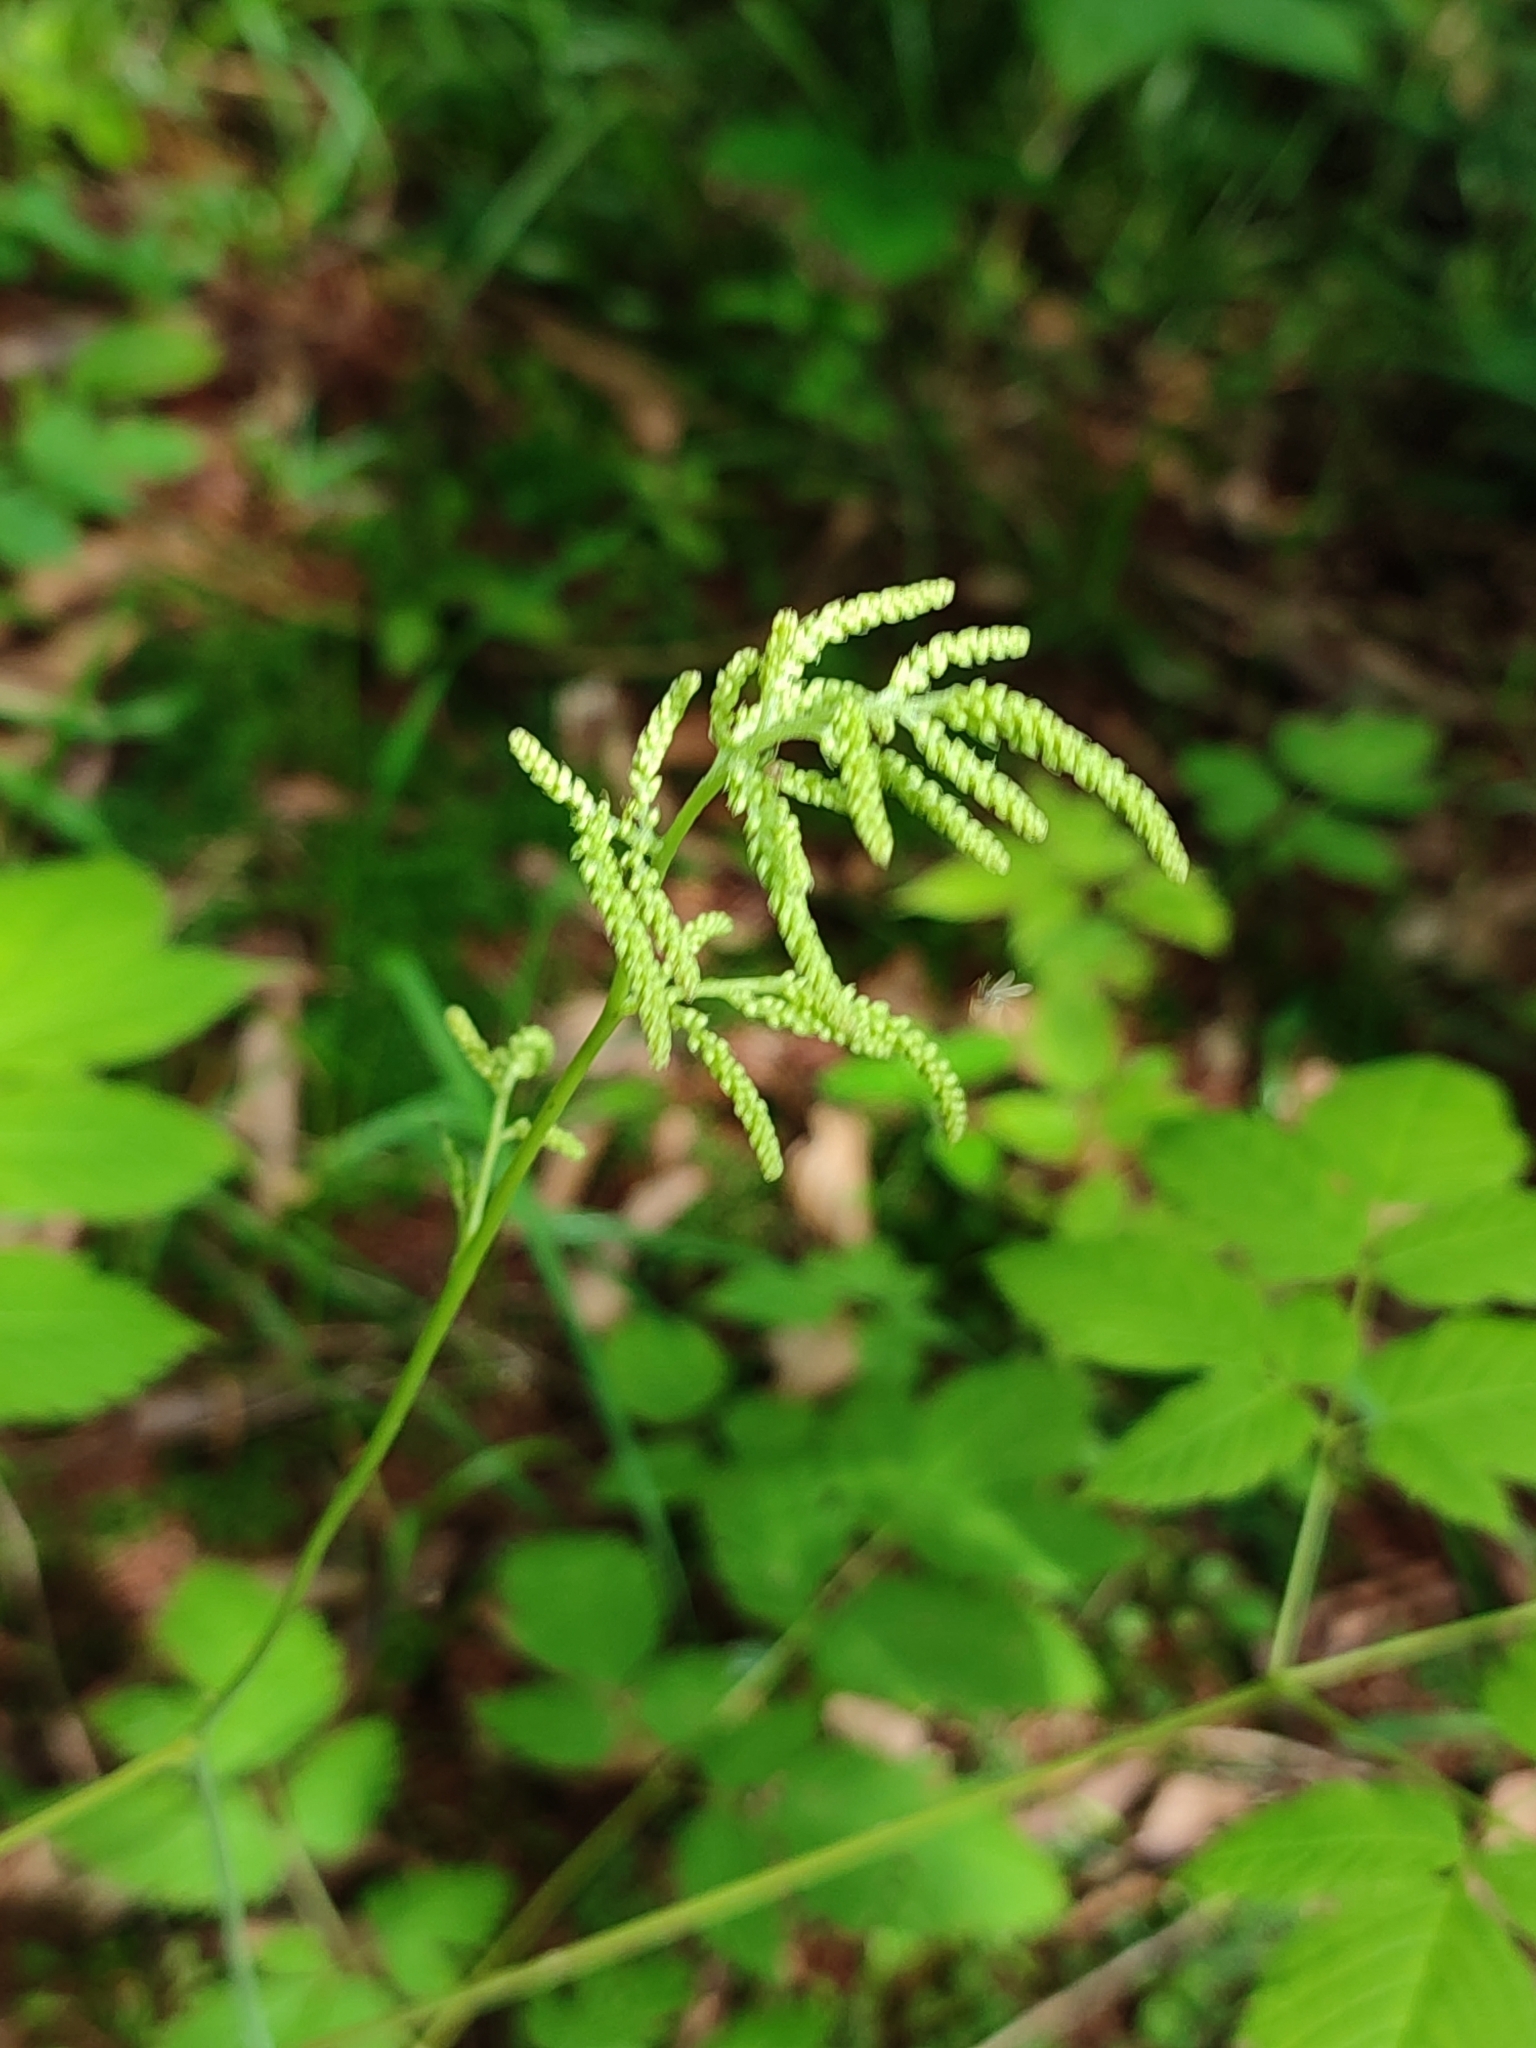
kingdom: Plantae
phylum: Tracheophyta
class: Magnoliopsida
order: Rosales
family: Rosaceae
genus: Aruncus
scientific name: Aruncus dioicus
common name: Buck's-beard
